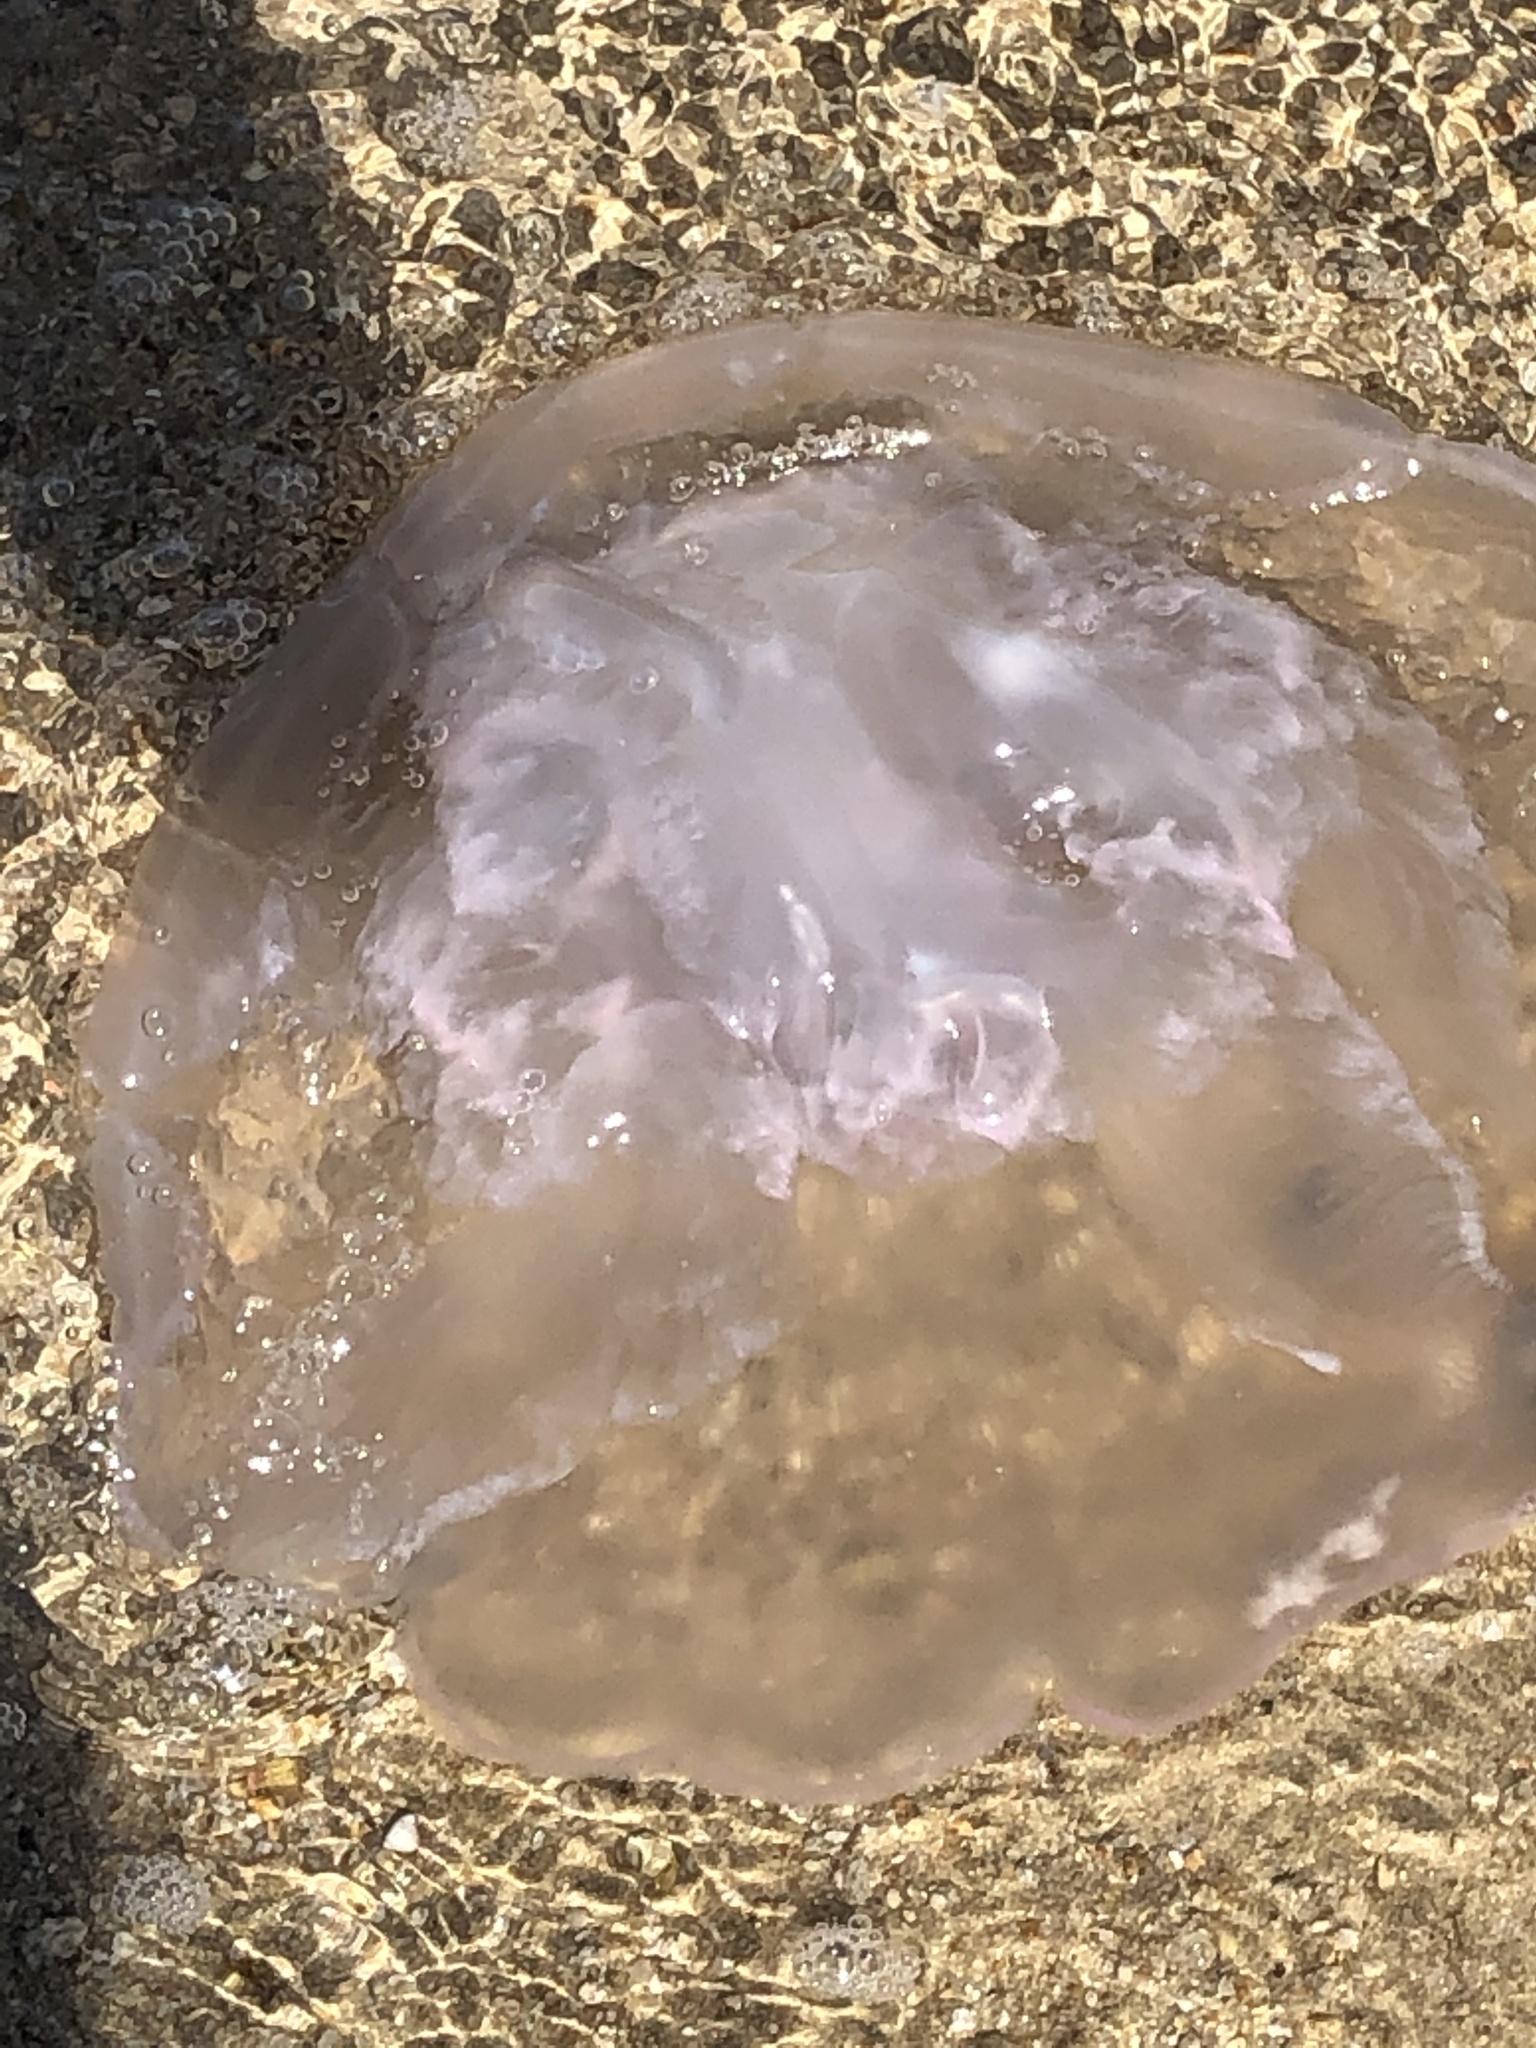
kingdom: Animalia
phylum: Cnidaria
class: Scyphozoa
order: Semaeostomeae
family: Ulmaridae
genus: Aurelia
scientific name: Aurelia labiata
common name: Pacific moon jelly
